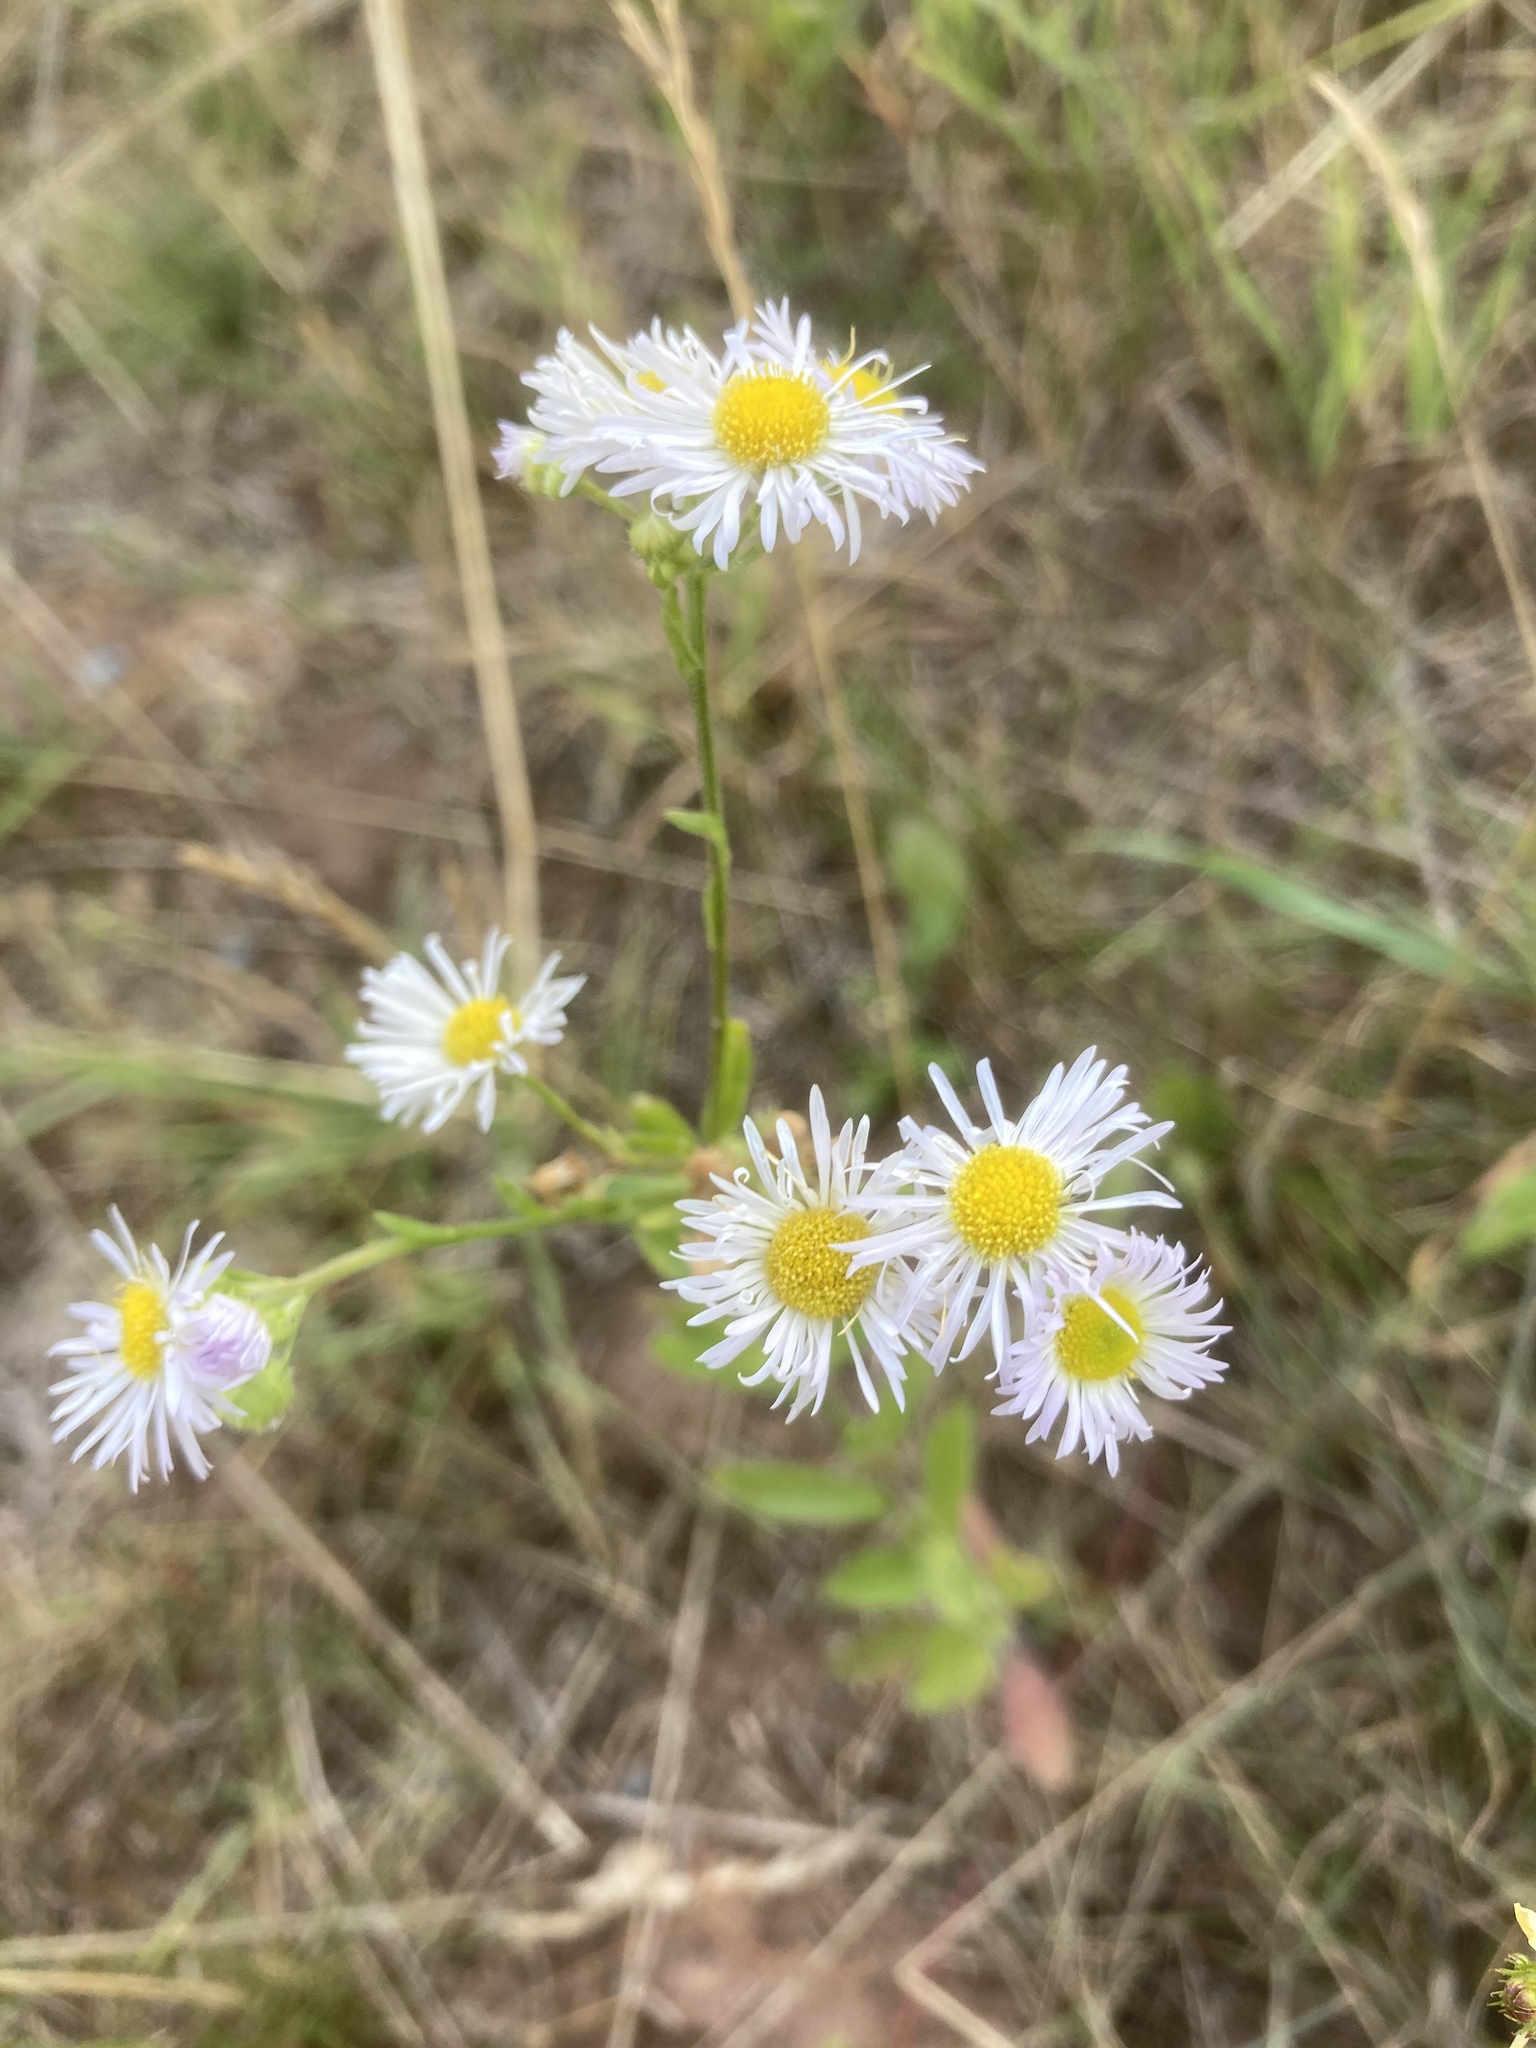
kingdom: Plantae
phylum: Tracheophyta
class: Magnoliopsida
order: Asterales
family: Asteraceae
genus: Erigeron
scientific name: Erigeron annuus
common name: Tall fleabane
